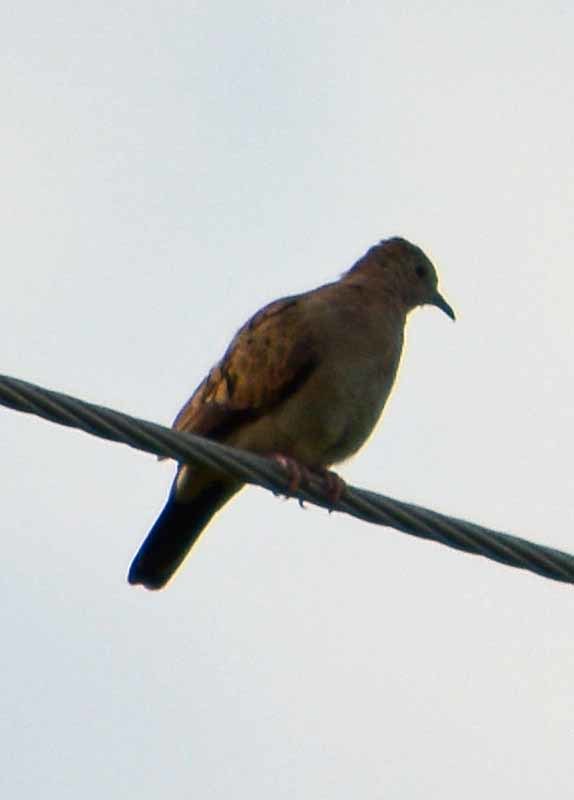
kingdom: Animalia
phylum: Chordata
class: Aves
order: Columbiformes
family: Columbidae
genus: Columbina
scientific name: Columbina passerina
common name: Common ground-dove
